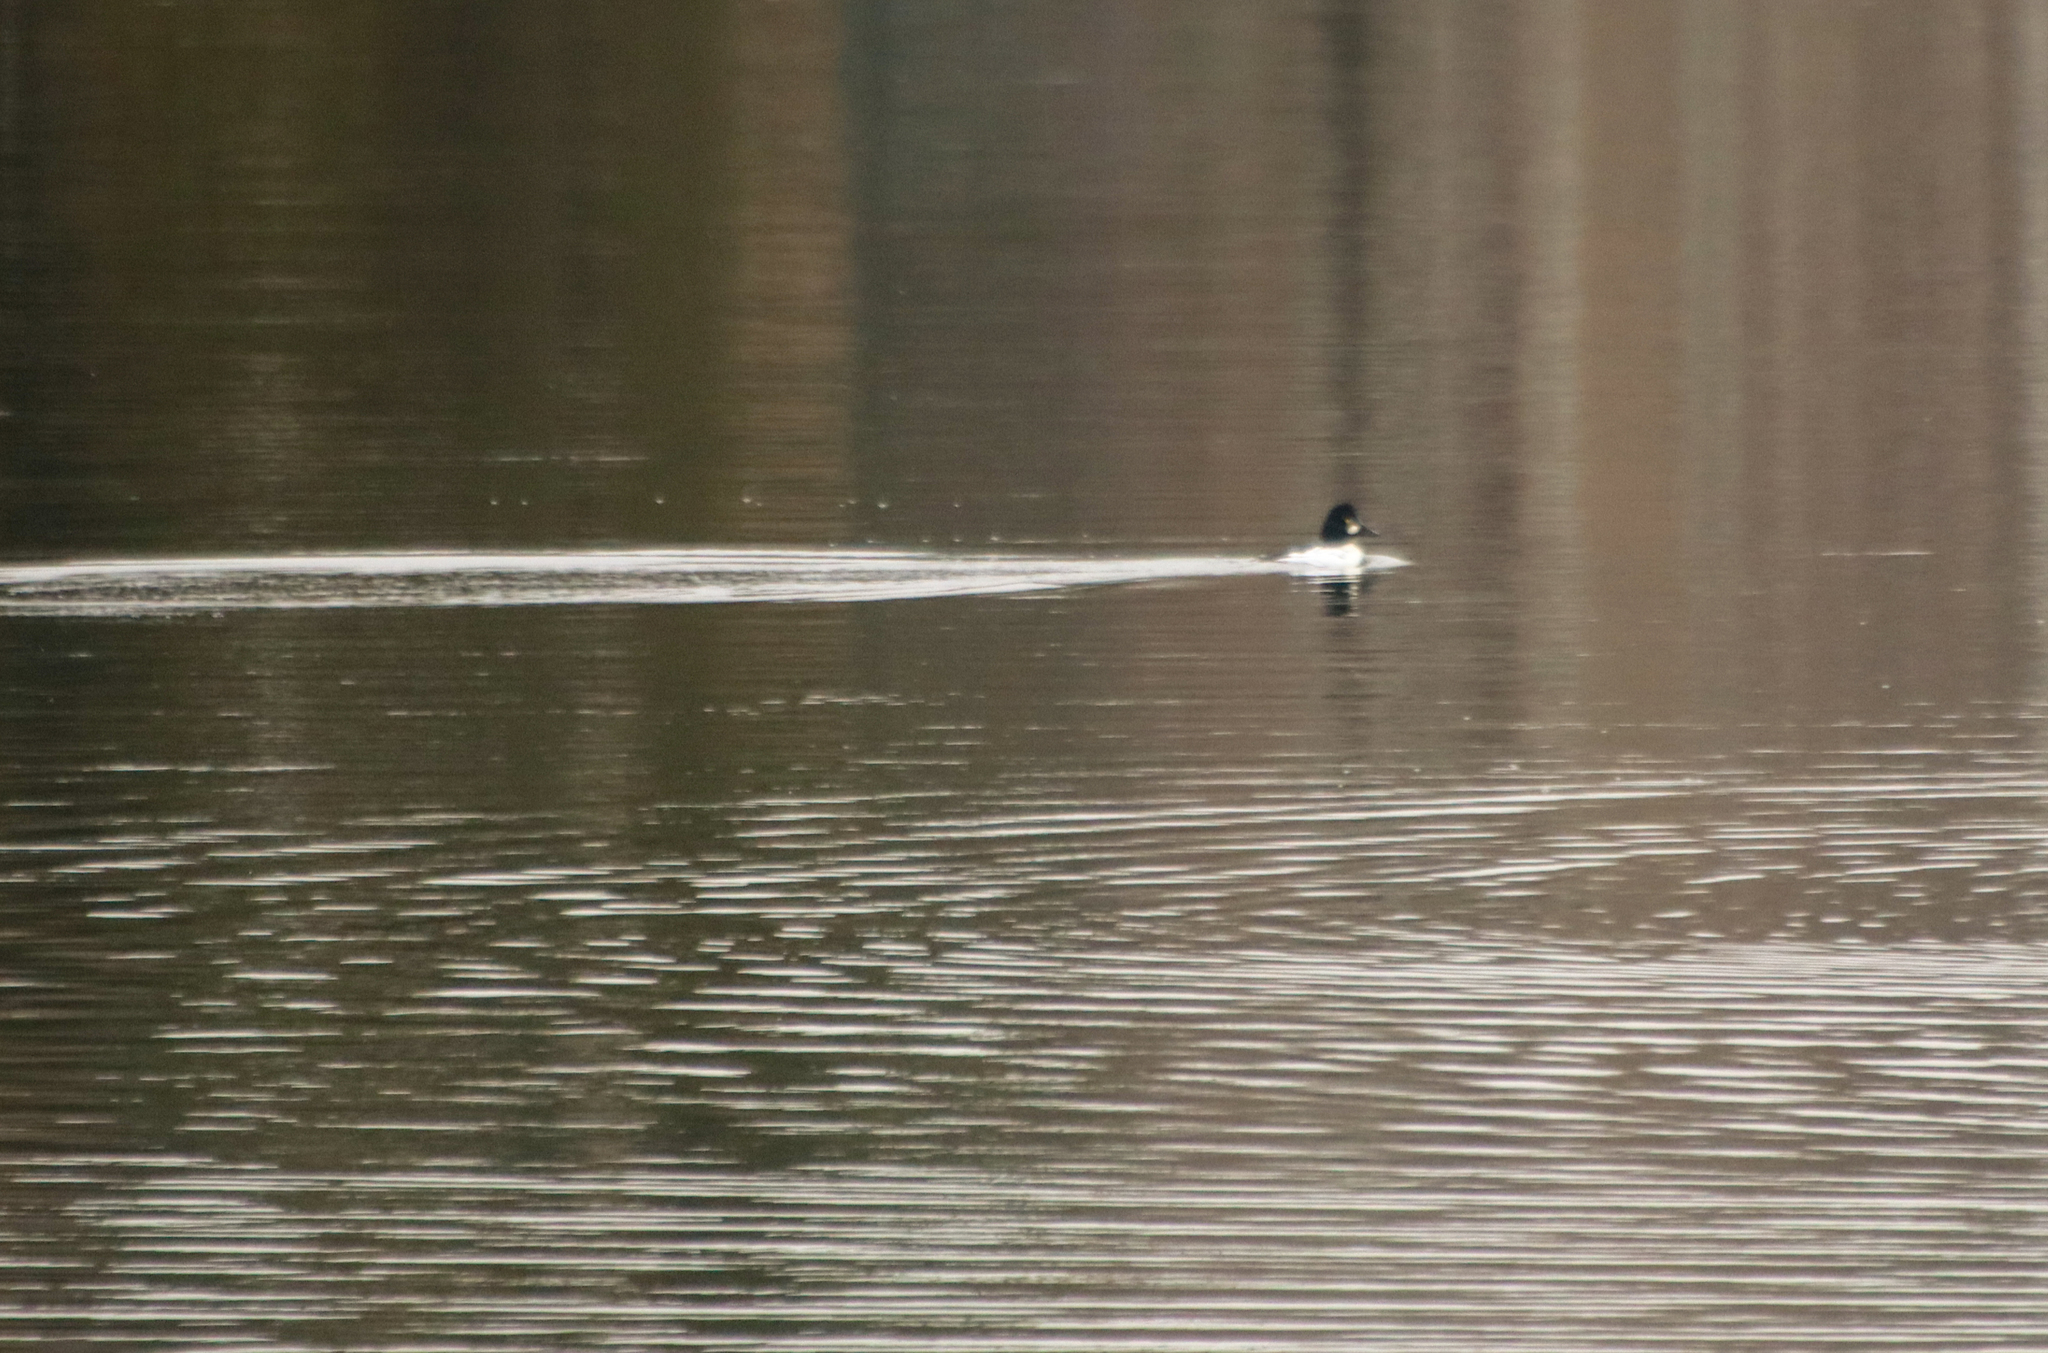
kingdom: Animalia
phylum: Chordata
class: Aves
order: Anseriformes
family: Anatidae
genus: Bucephala
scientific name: Bucephala clangula
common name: Common goldeneye
